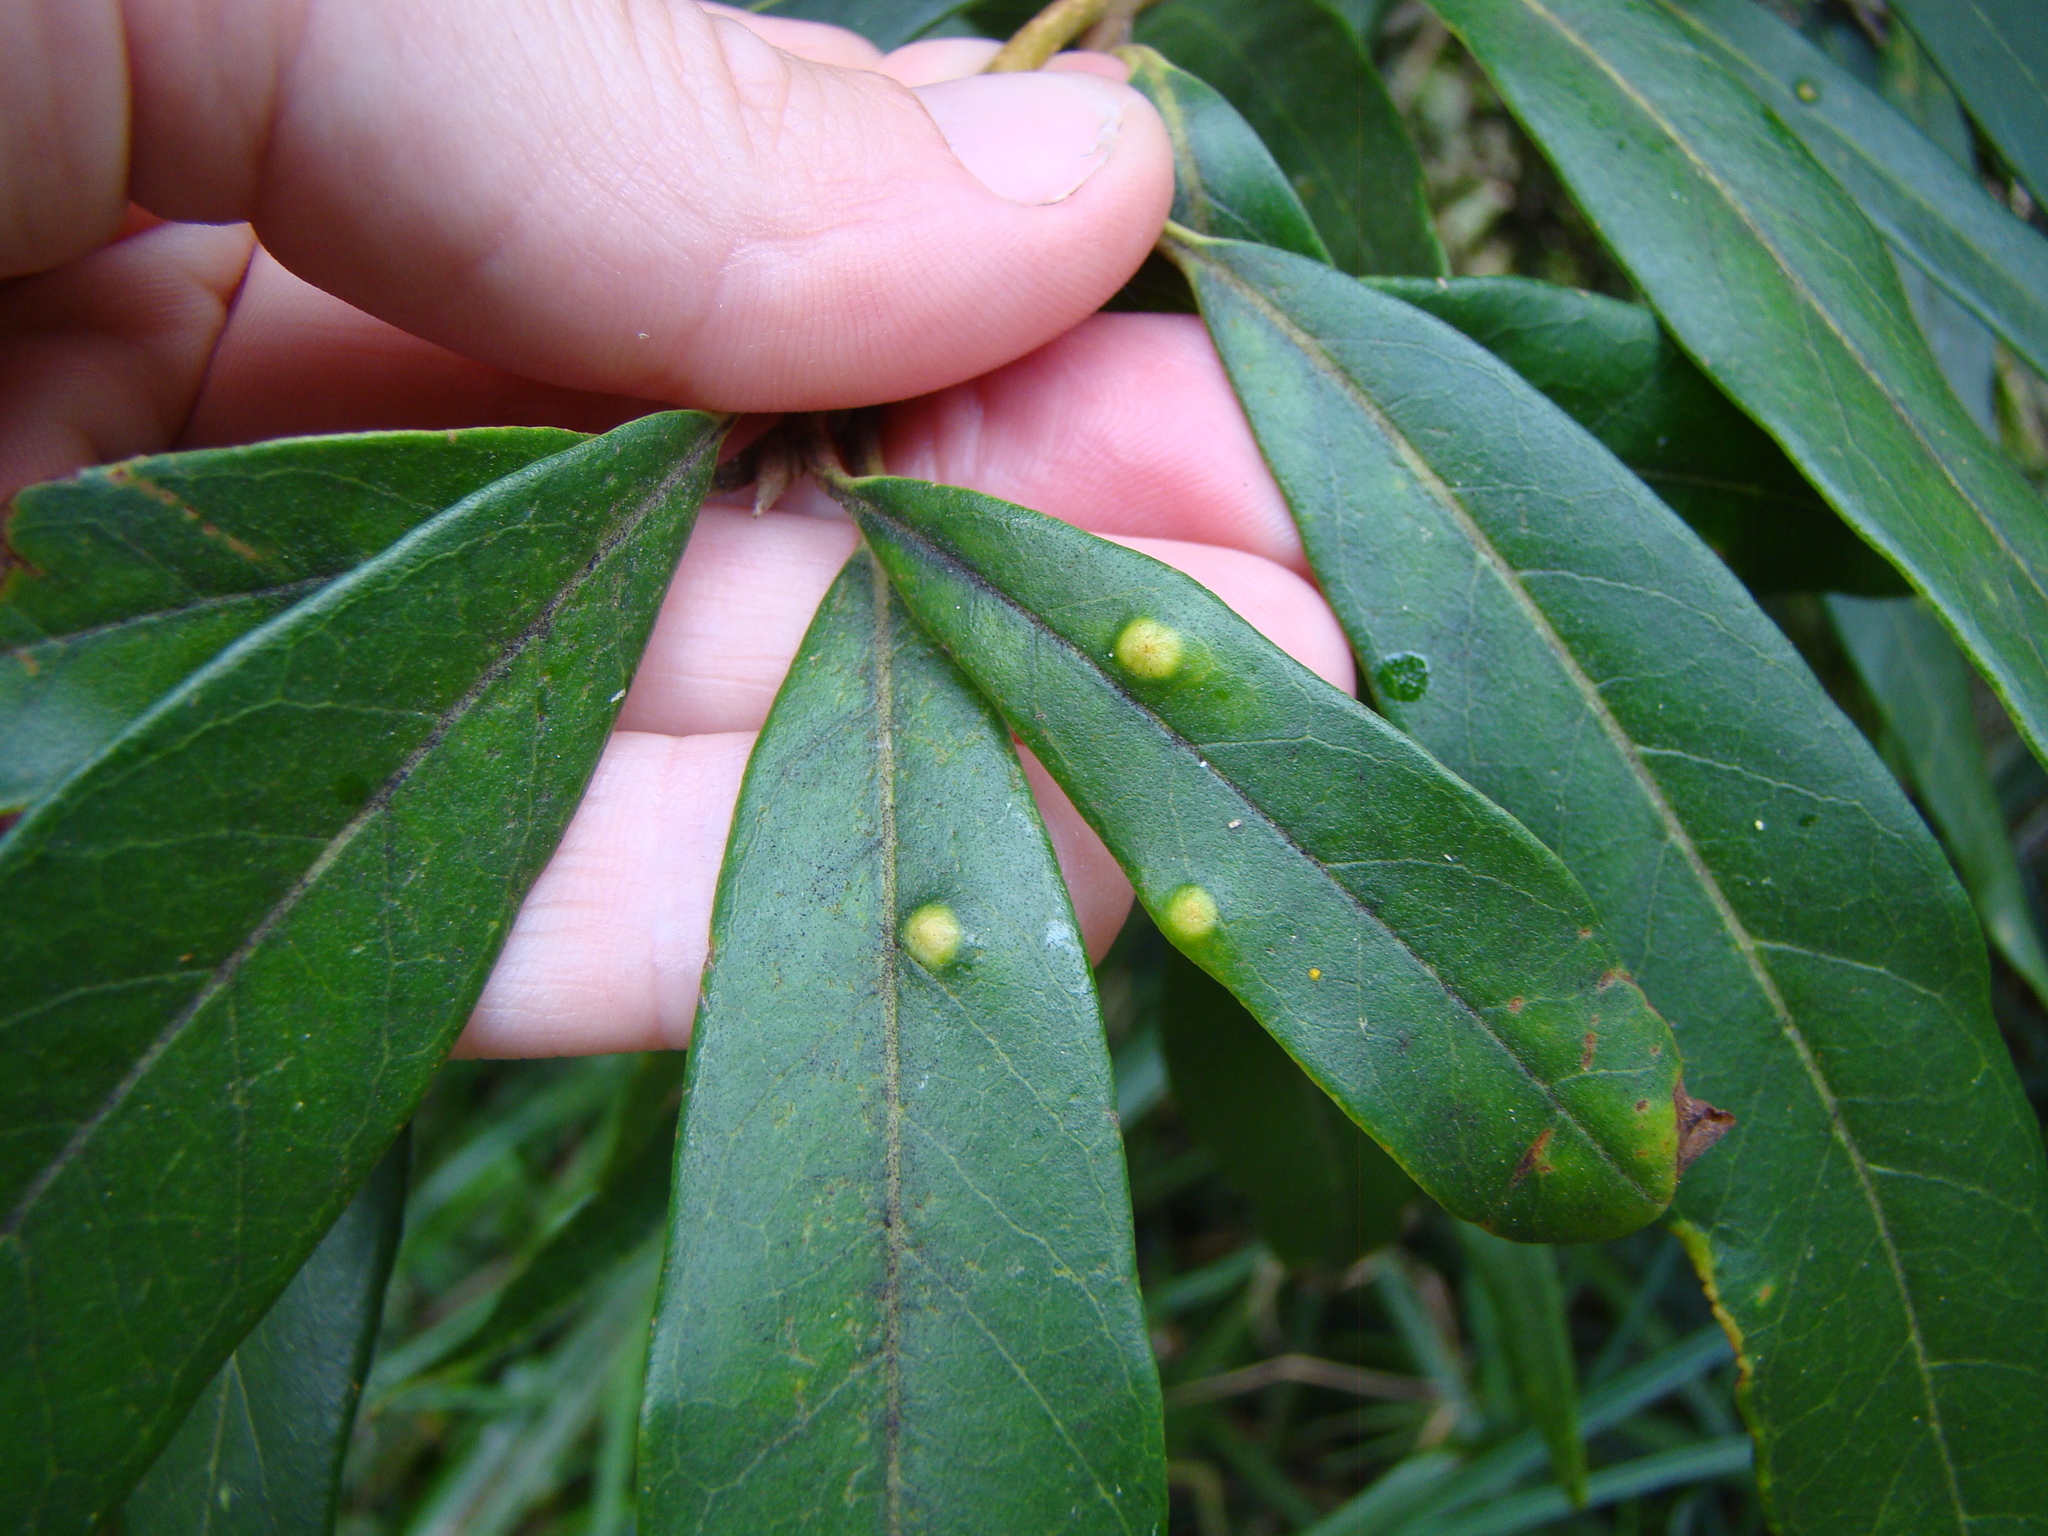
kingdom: Animalia
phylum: Arthropoda
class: Insecta
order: Hemiptera
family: Eriococcidae
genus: Eriococcus
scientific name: Eriococcus fossor
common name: Pit making maire scale
